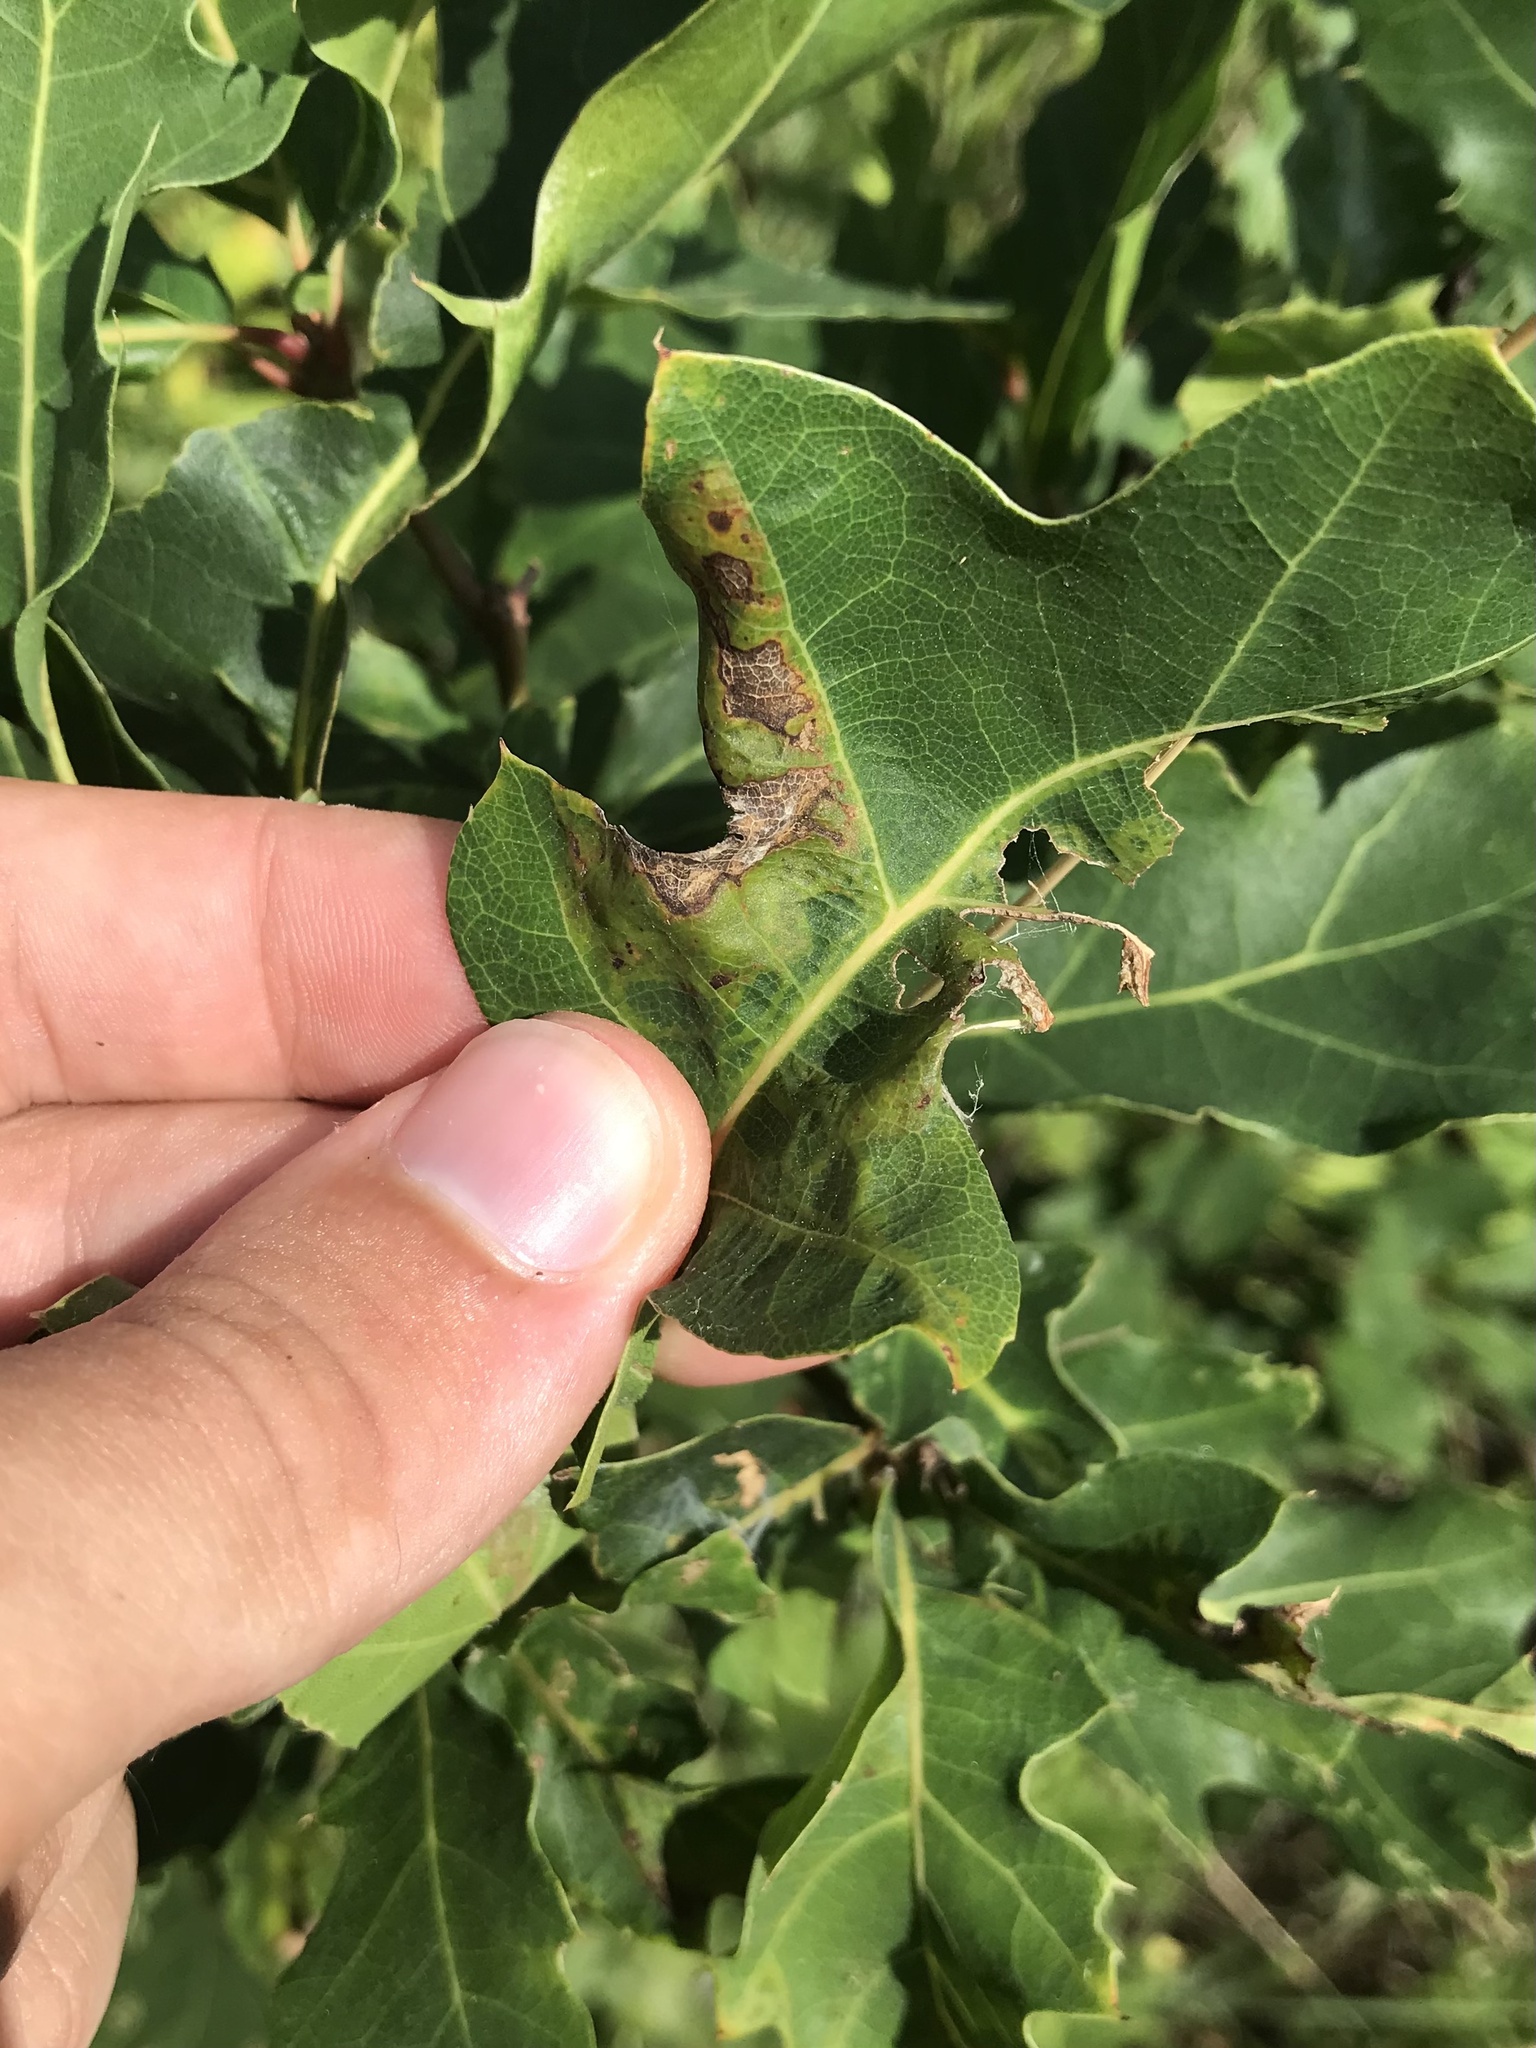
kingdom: Animalia
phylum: Arthropoda
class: Insecta
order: Lepidoptera
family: Gracillariidae
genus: Acrocercops
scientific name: Acrocercops albinatella
